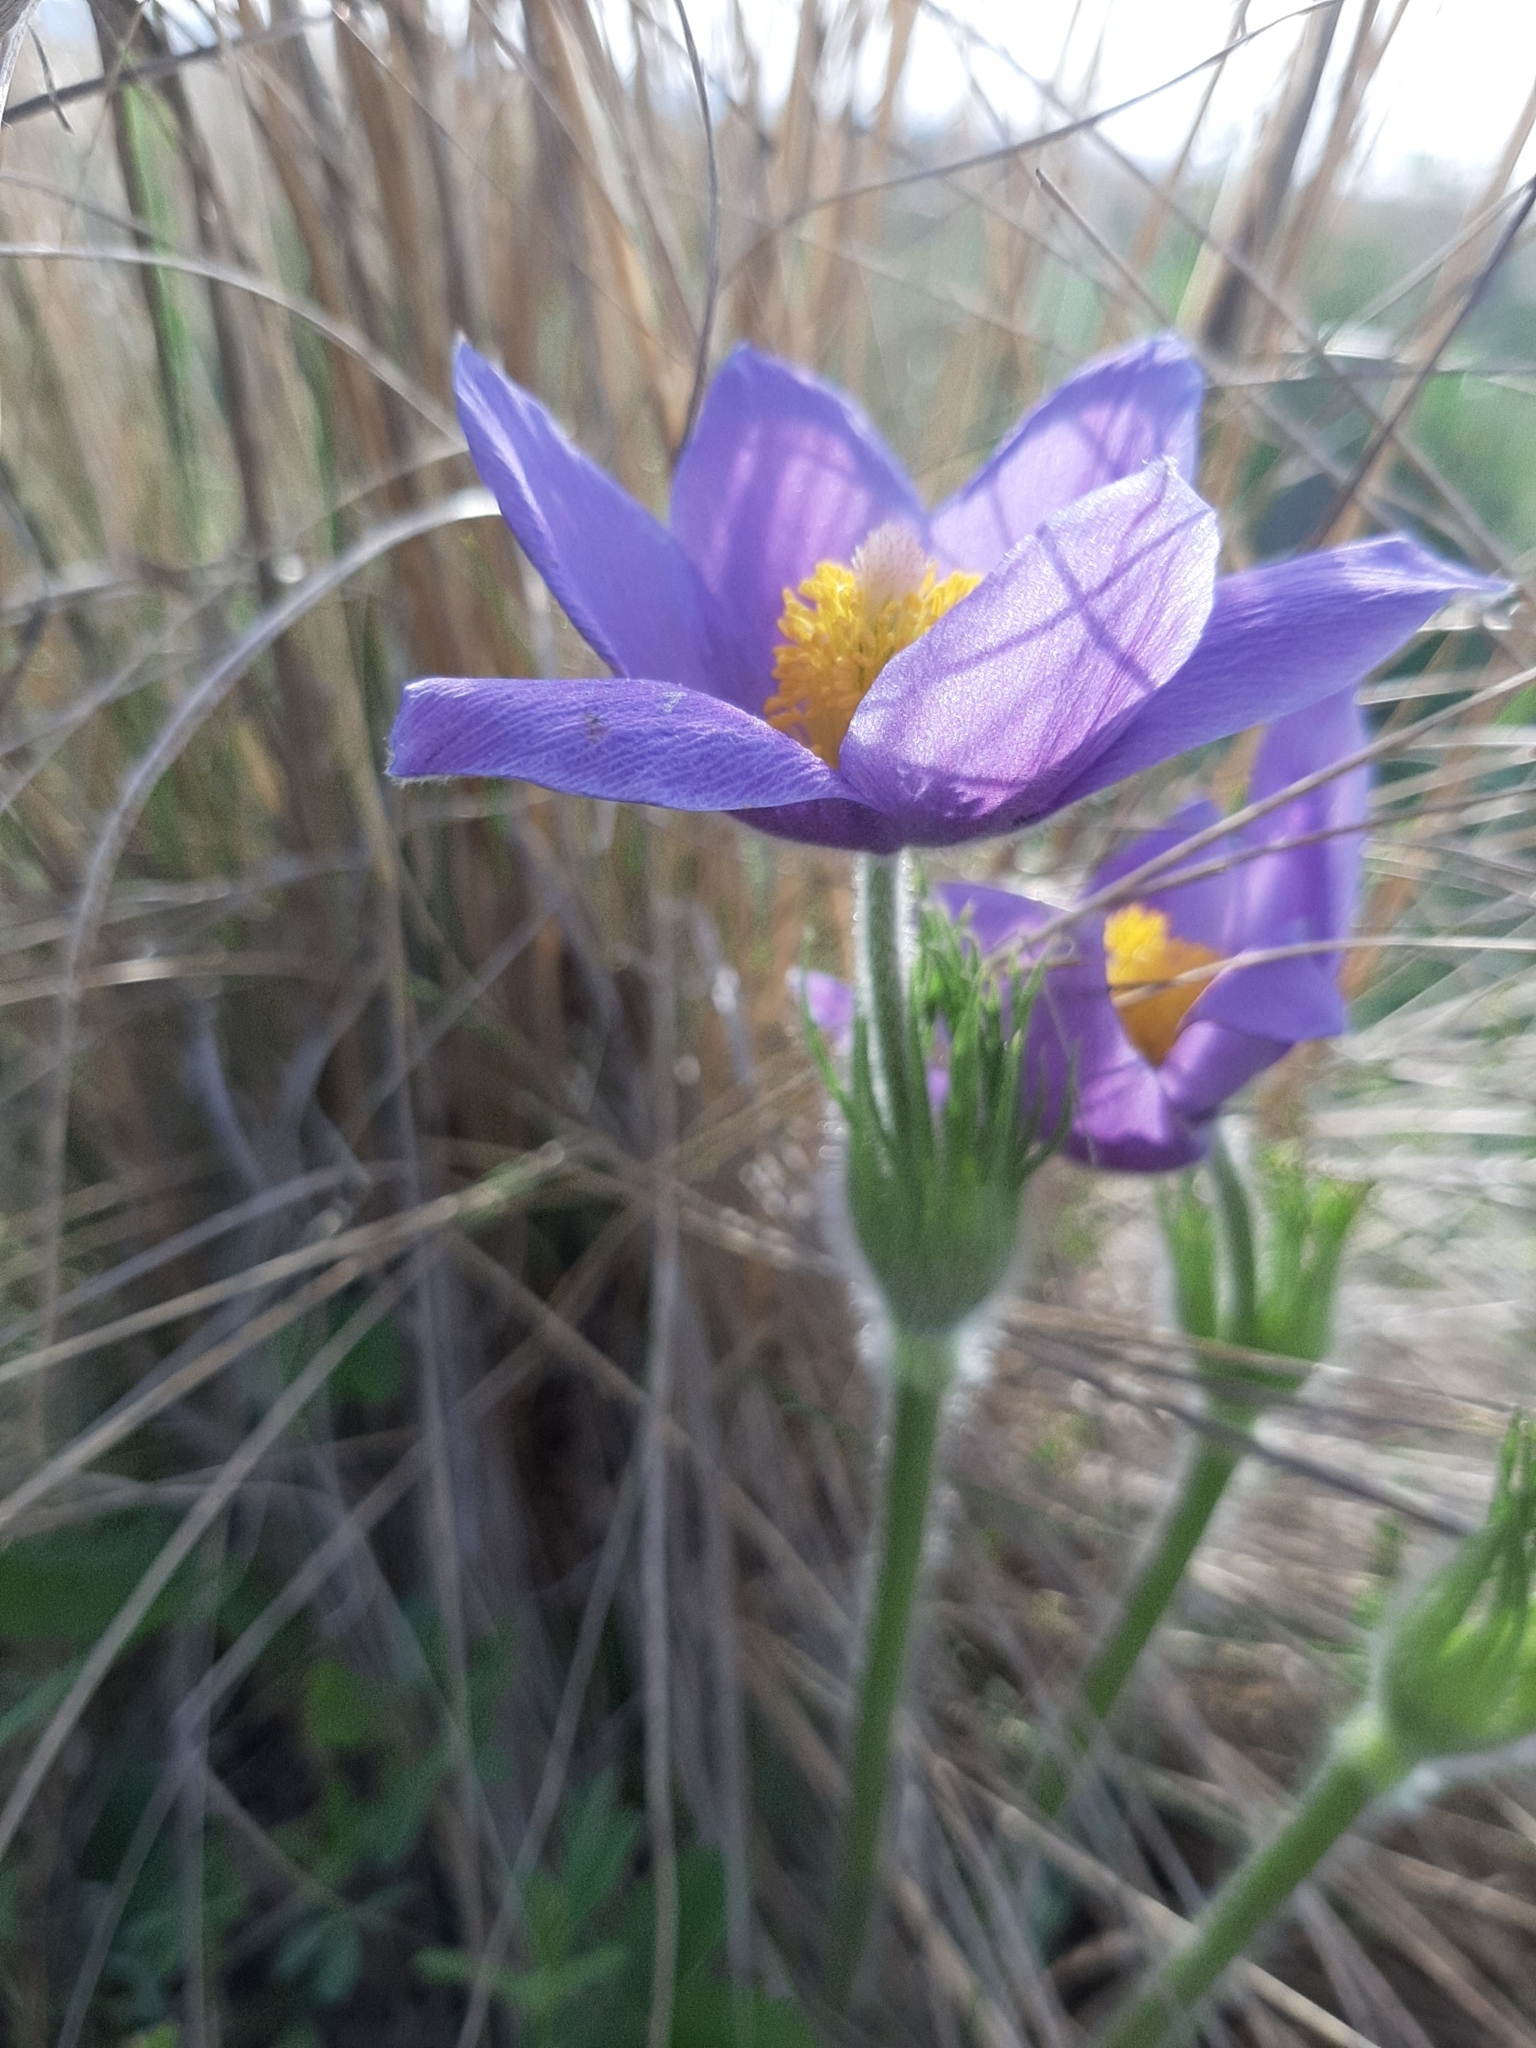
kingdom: Plantae
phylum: Tracheophyta
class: Magnoliopsida
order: Ranunculales
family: Ranunculaceae
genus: Pulsatilla
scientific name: Pulsatilla patens
